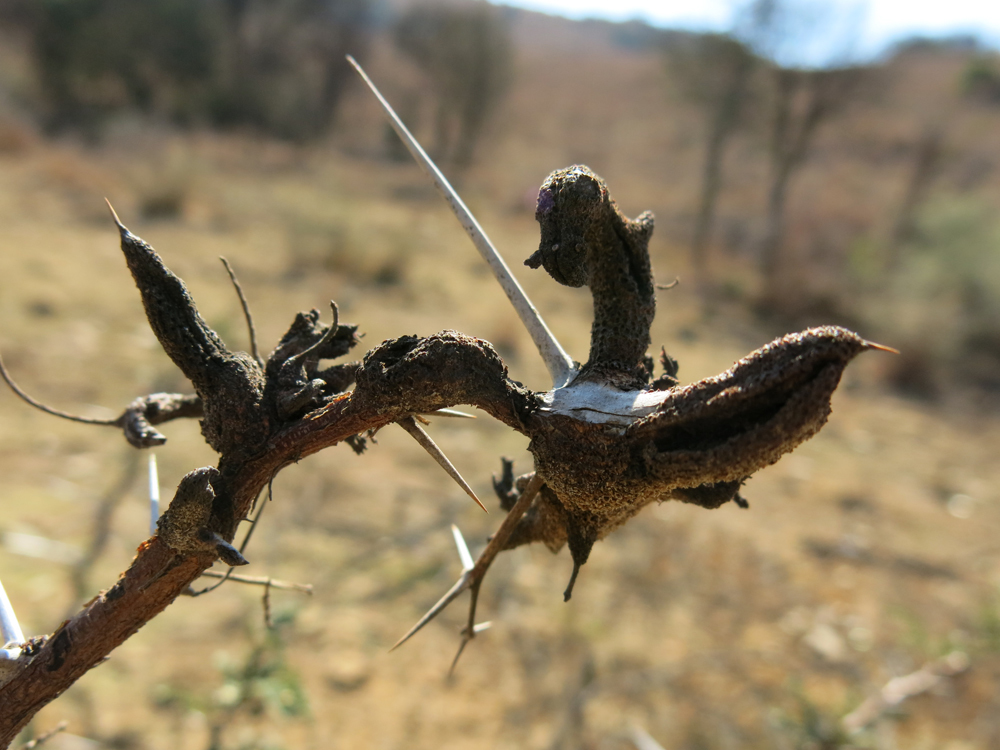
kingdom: Fungi
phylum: Basidiomycota
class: Pucciniomycetes
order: Pucciniales
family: Raveneliaceae
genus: Cephalotelium
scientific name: Cephalotelium macowanianum
